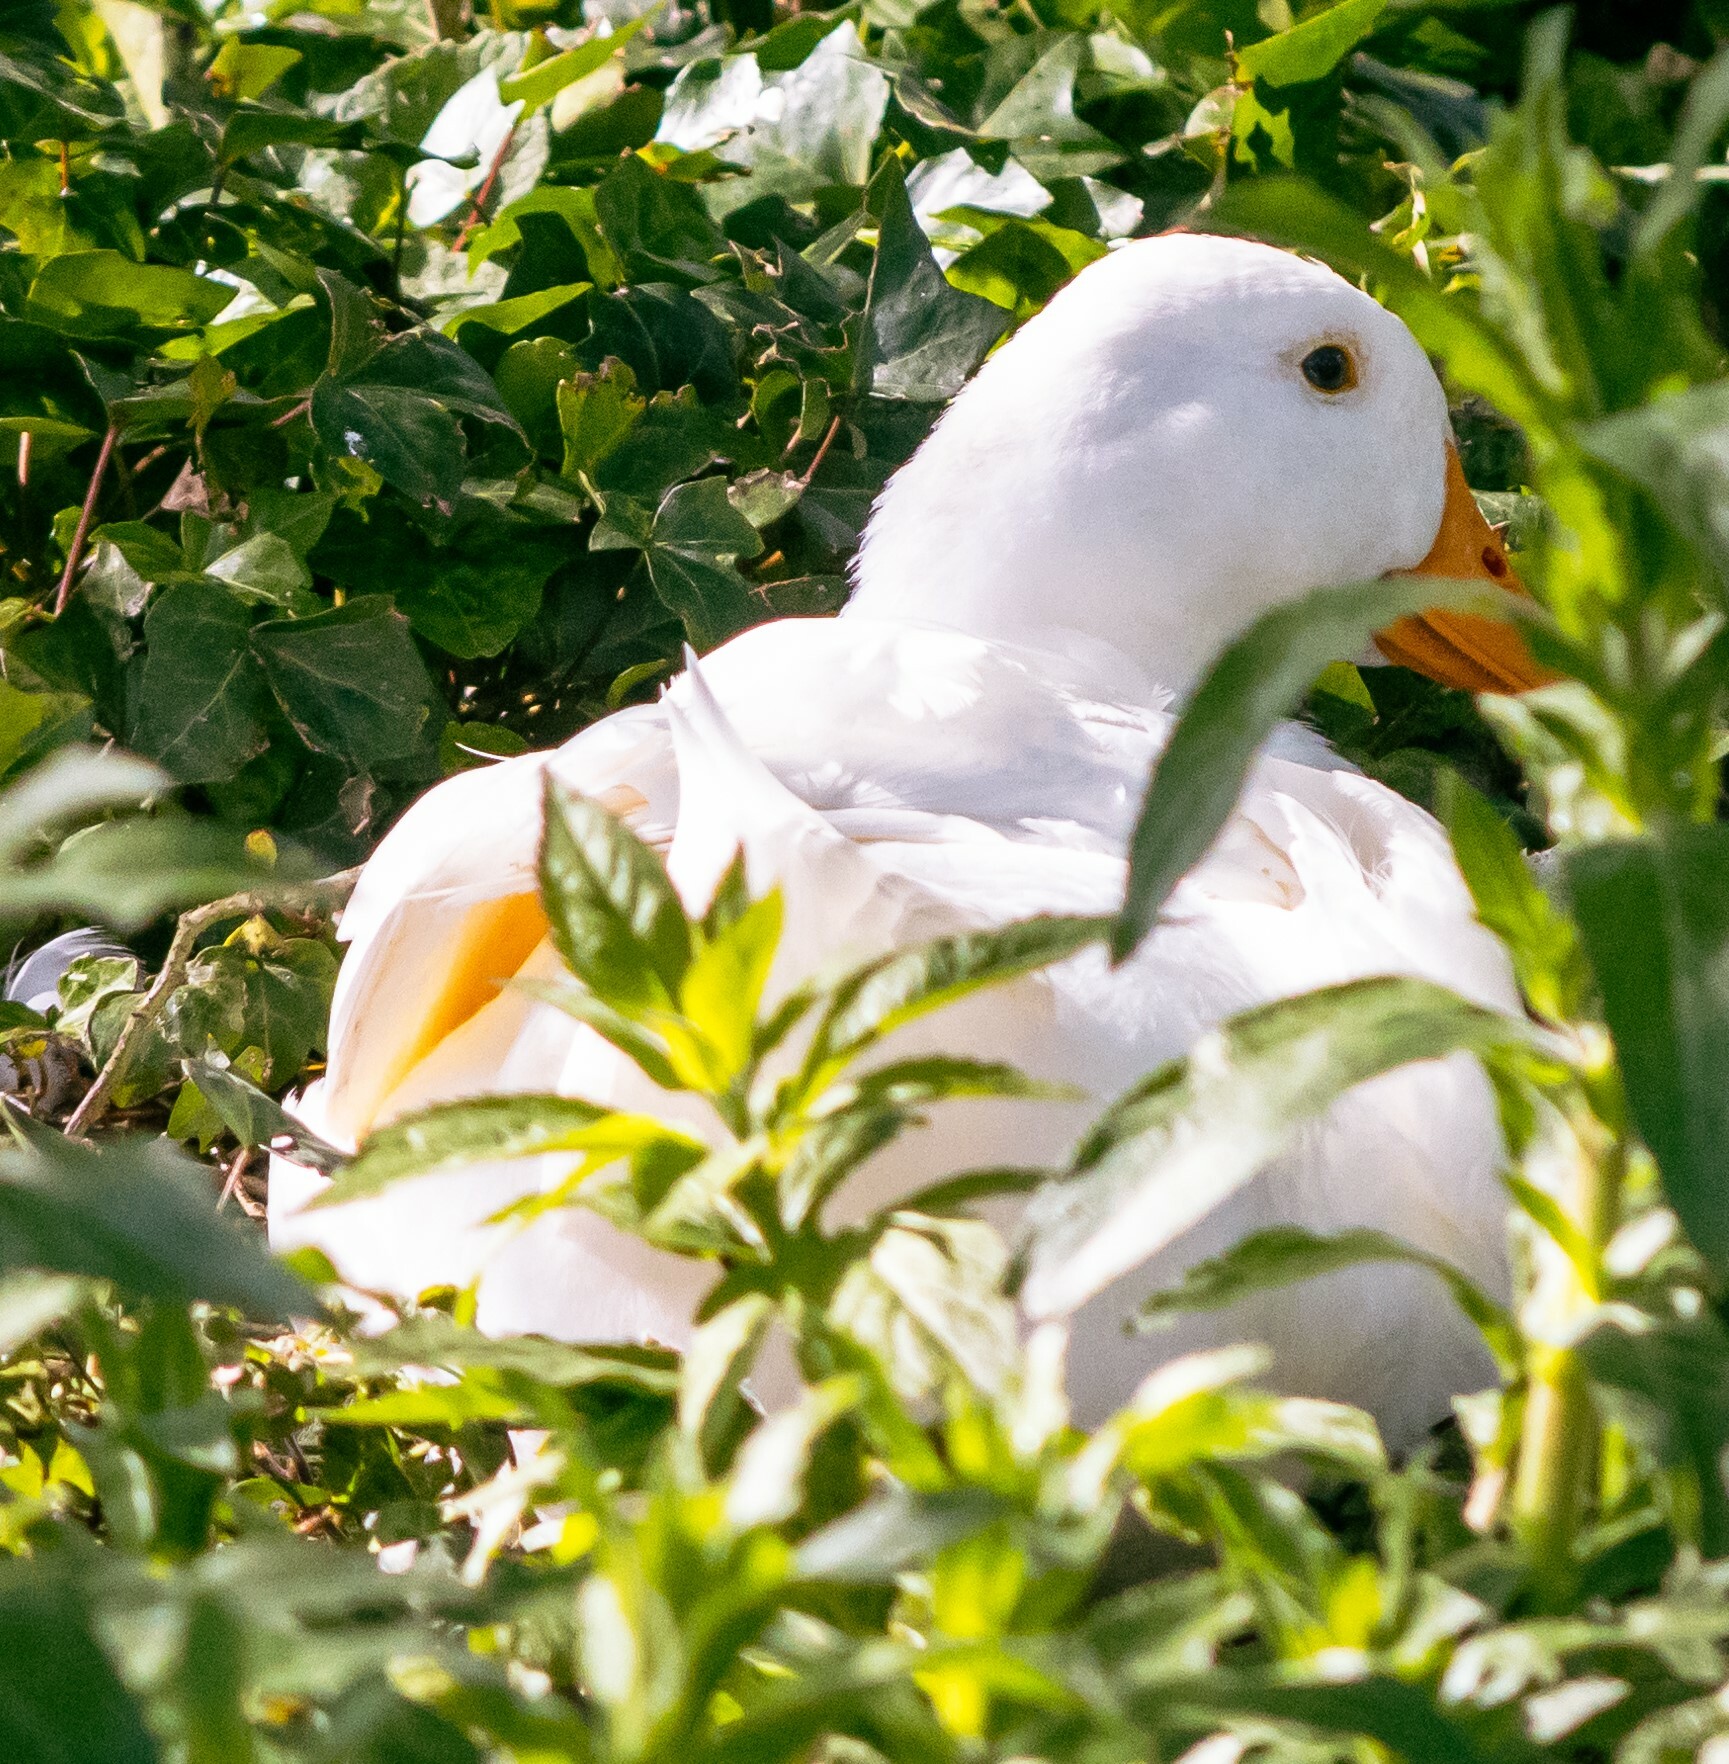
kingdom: Animalia
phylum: Chordata
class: Aves
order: Anseriformes
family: Anatidae
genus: Anas
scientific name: Anas platyrhynchos
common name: Mallard
